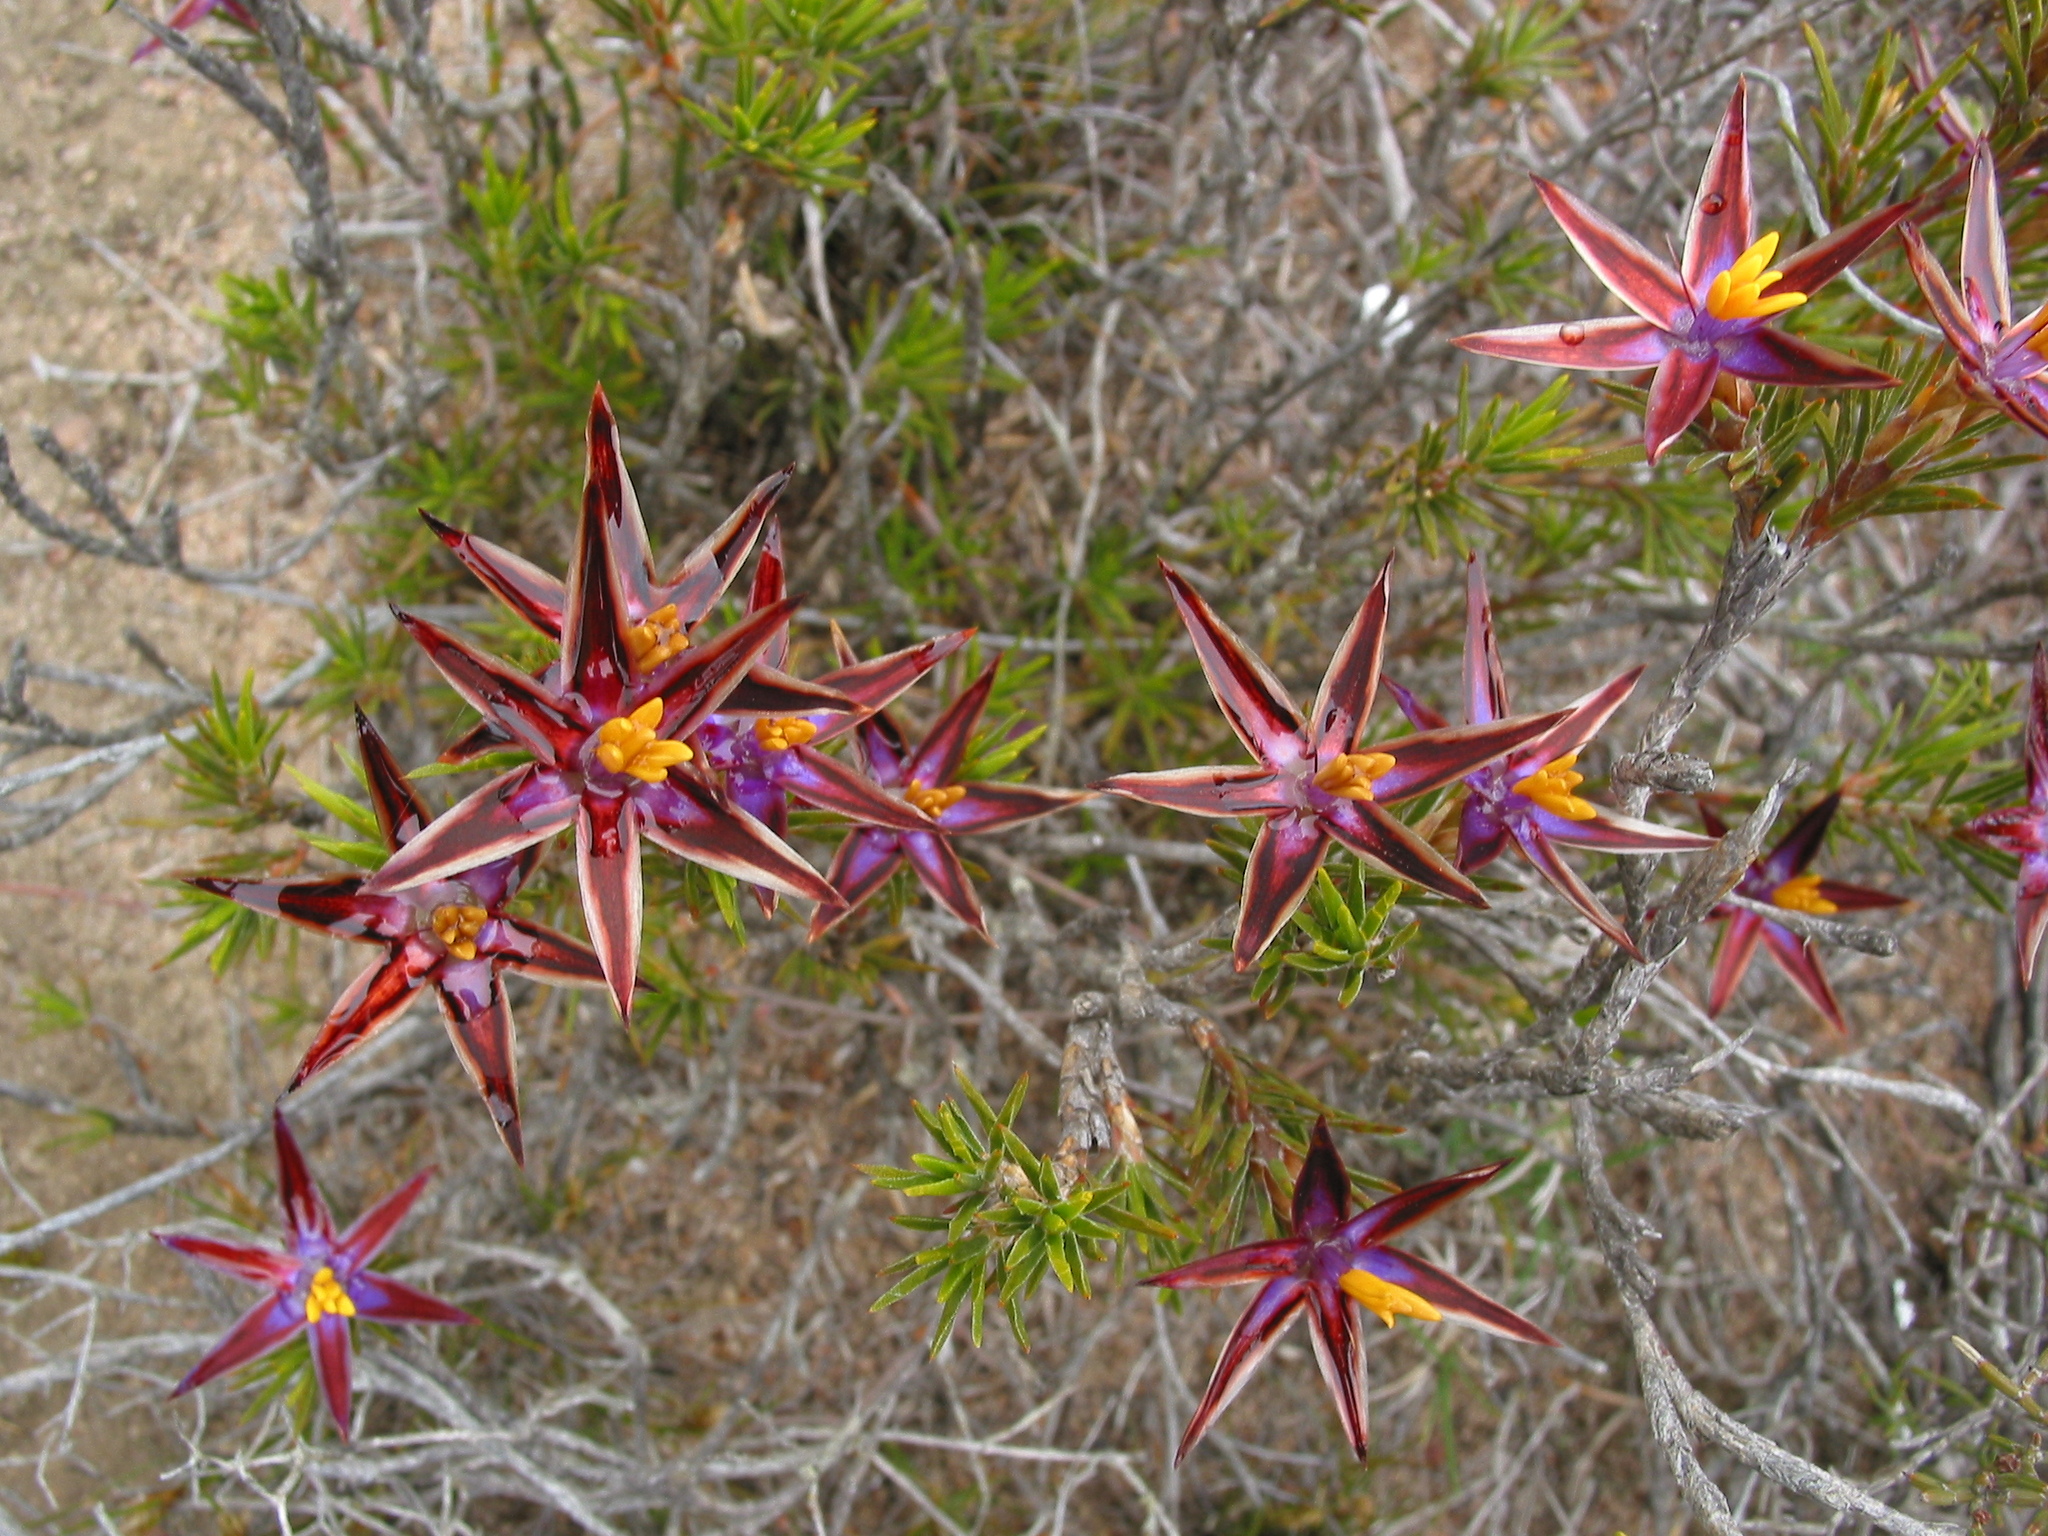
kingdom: Plantae
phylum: Tracheophyta
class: Liliopsida
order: Arecales
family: Dasypogonaceae
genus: Calectasia
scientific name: Calectasia valida
